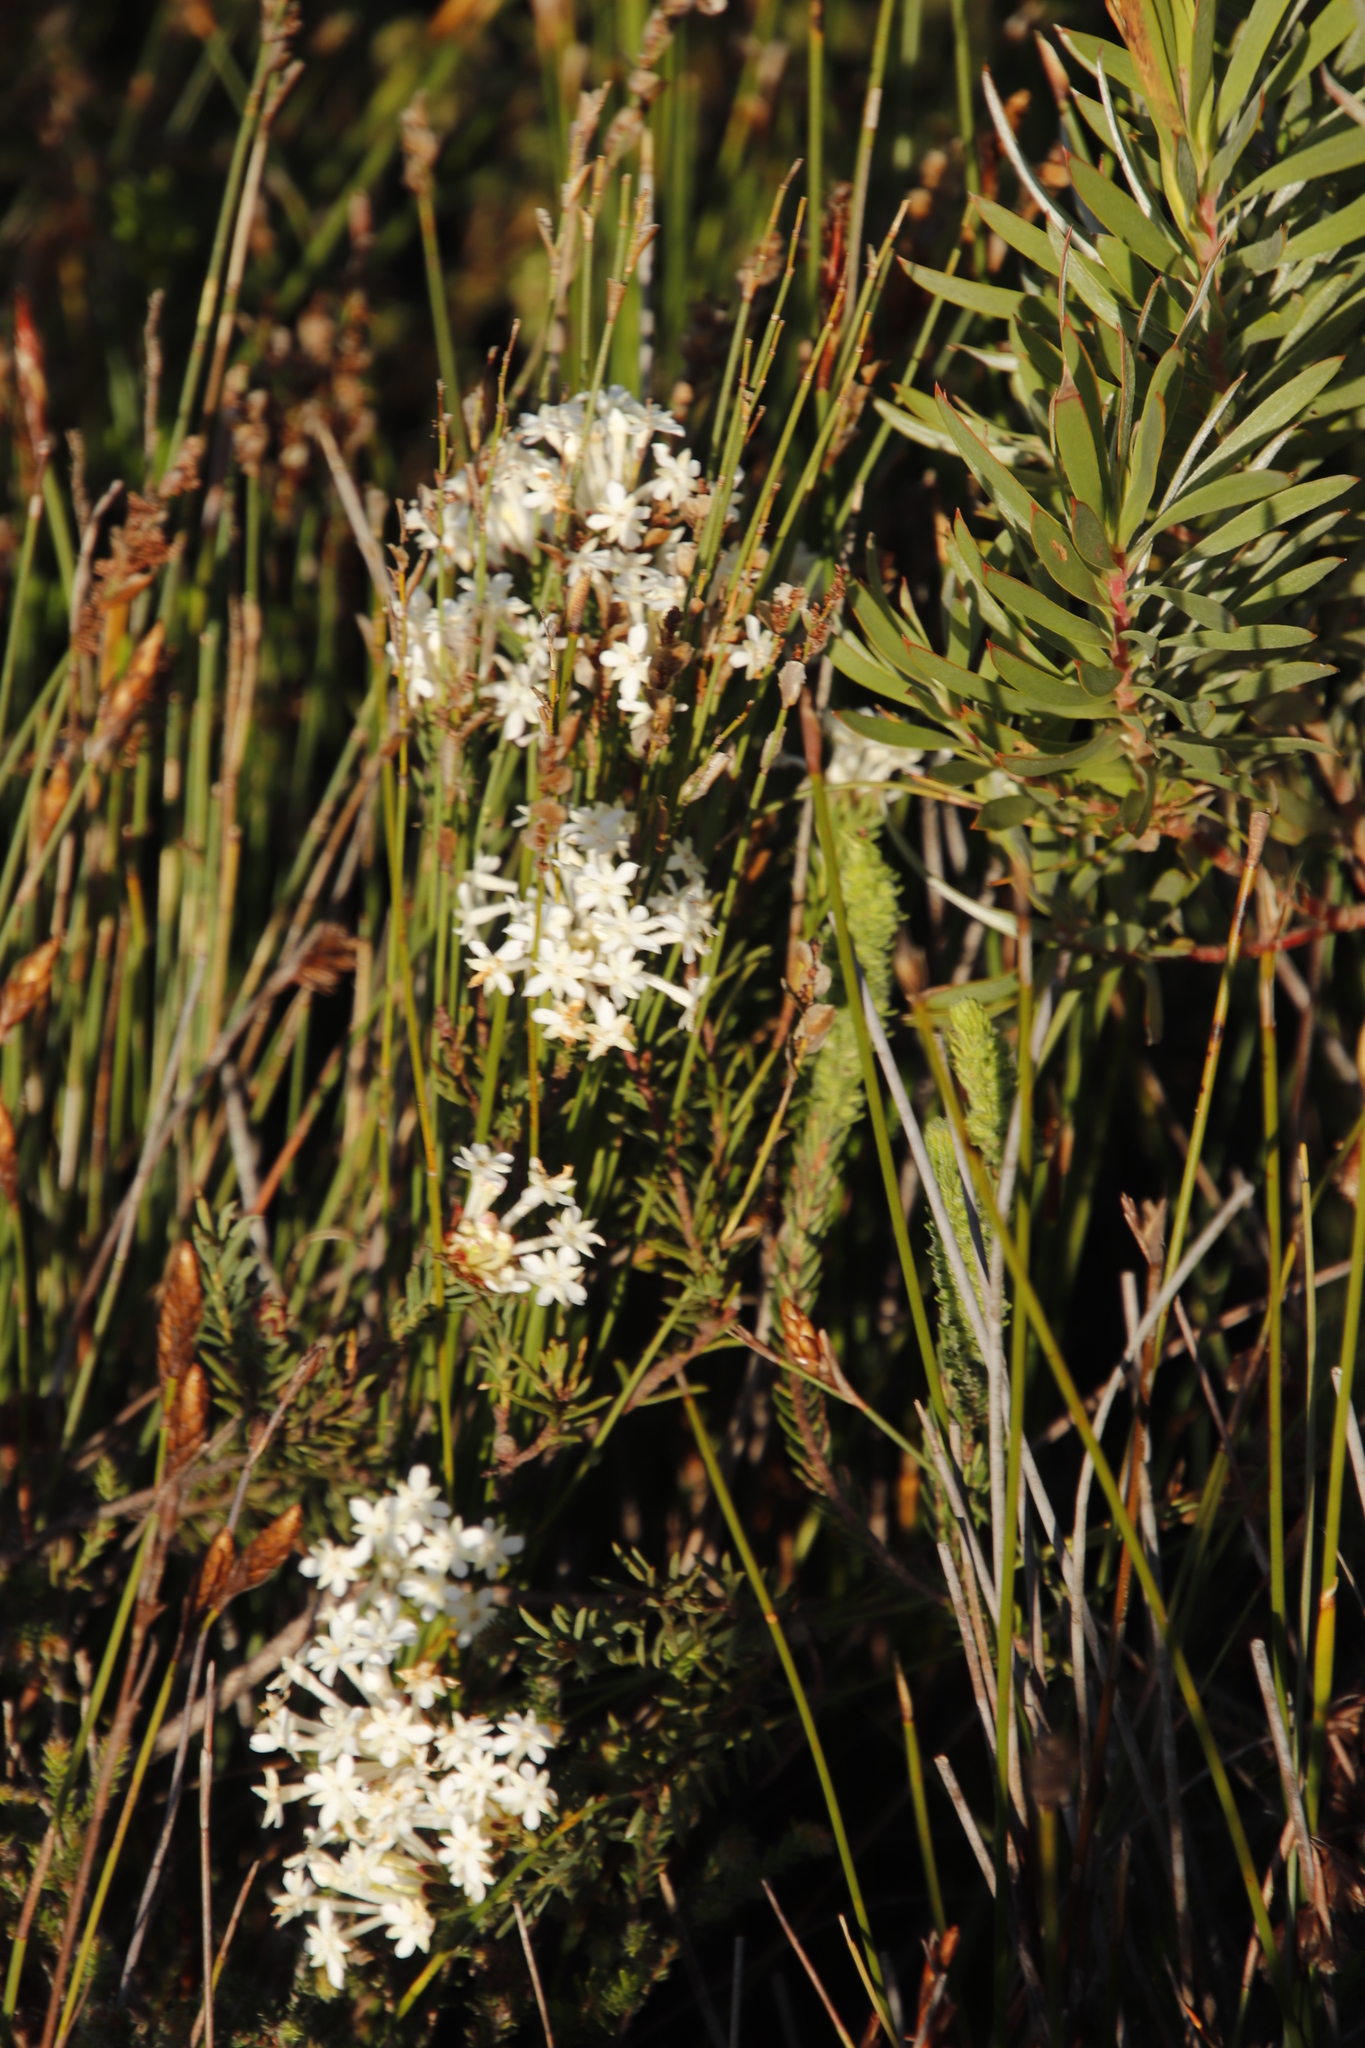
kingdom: Plantae
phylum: Tracheophyta
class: Magnoliopsida
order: Malvales
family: Thymelaeaceae
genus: Gnidia
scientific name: Gnidia pinifolia
